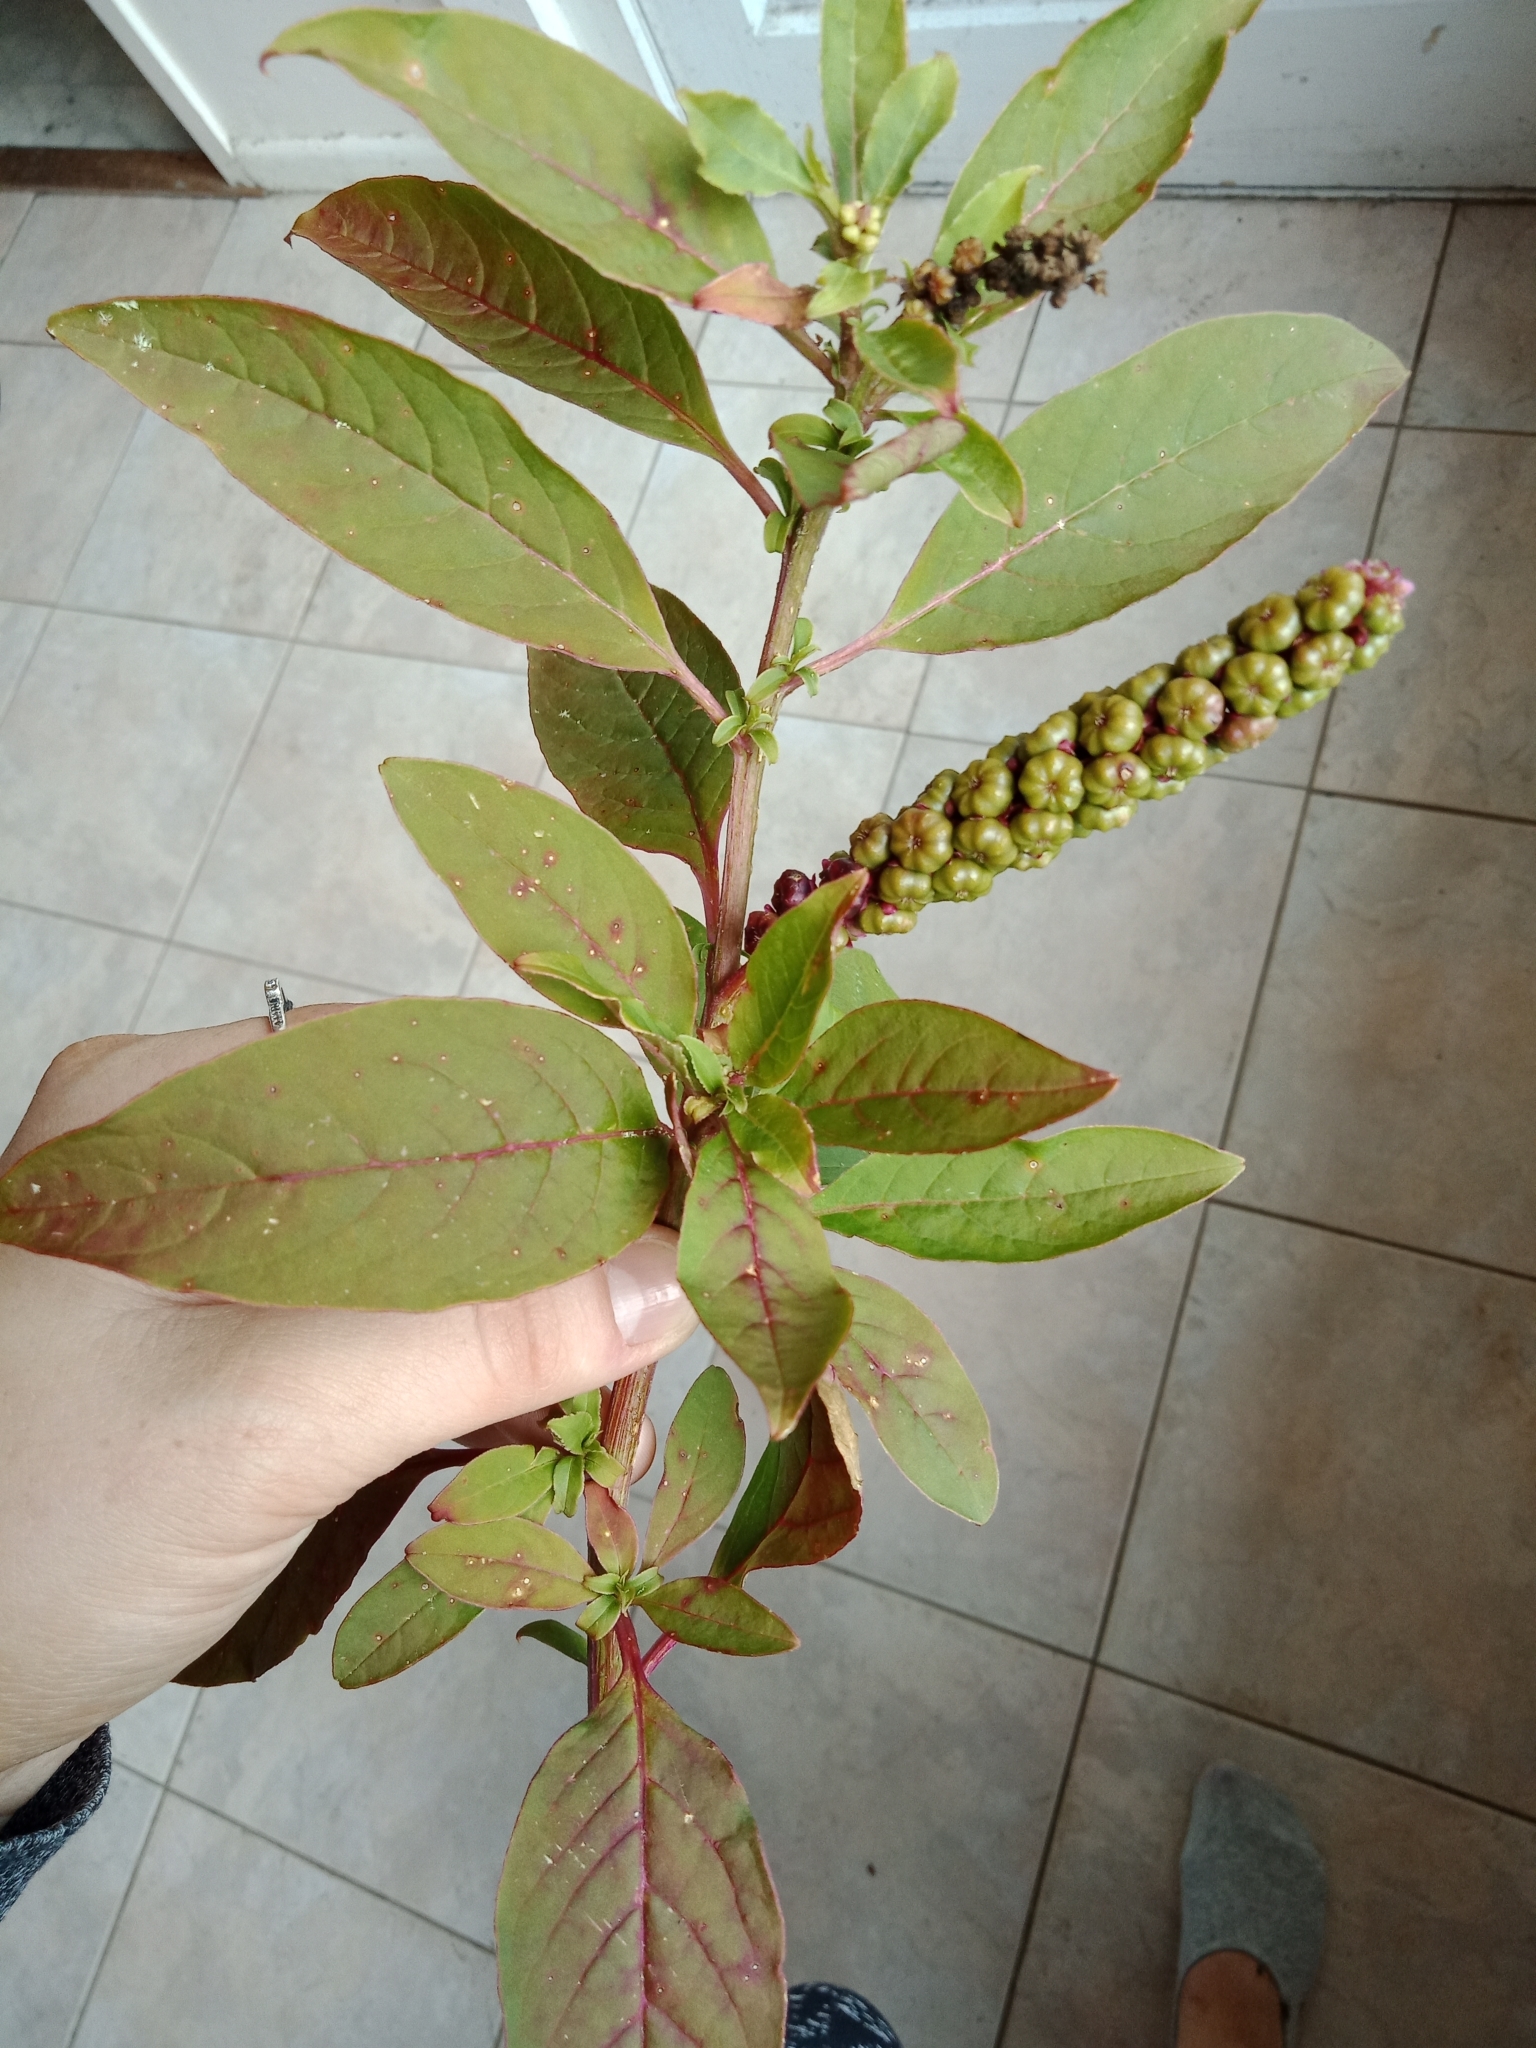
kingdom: Plantae
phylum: Tracheophyta
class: Magnoliopsida
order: Caryophyllales
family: Phytolaccaceae
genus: Phytolacca
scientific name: Phytolacca icosandra
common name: Button pokeweed
